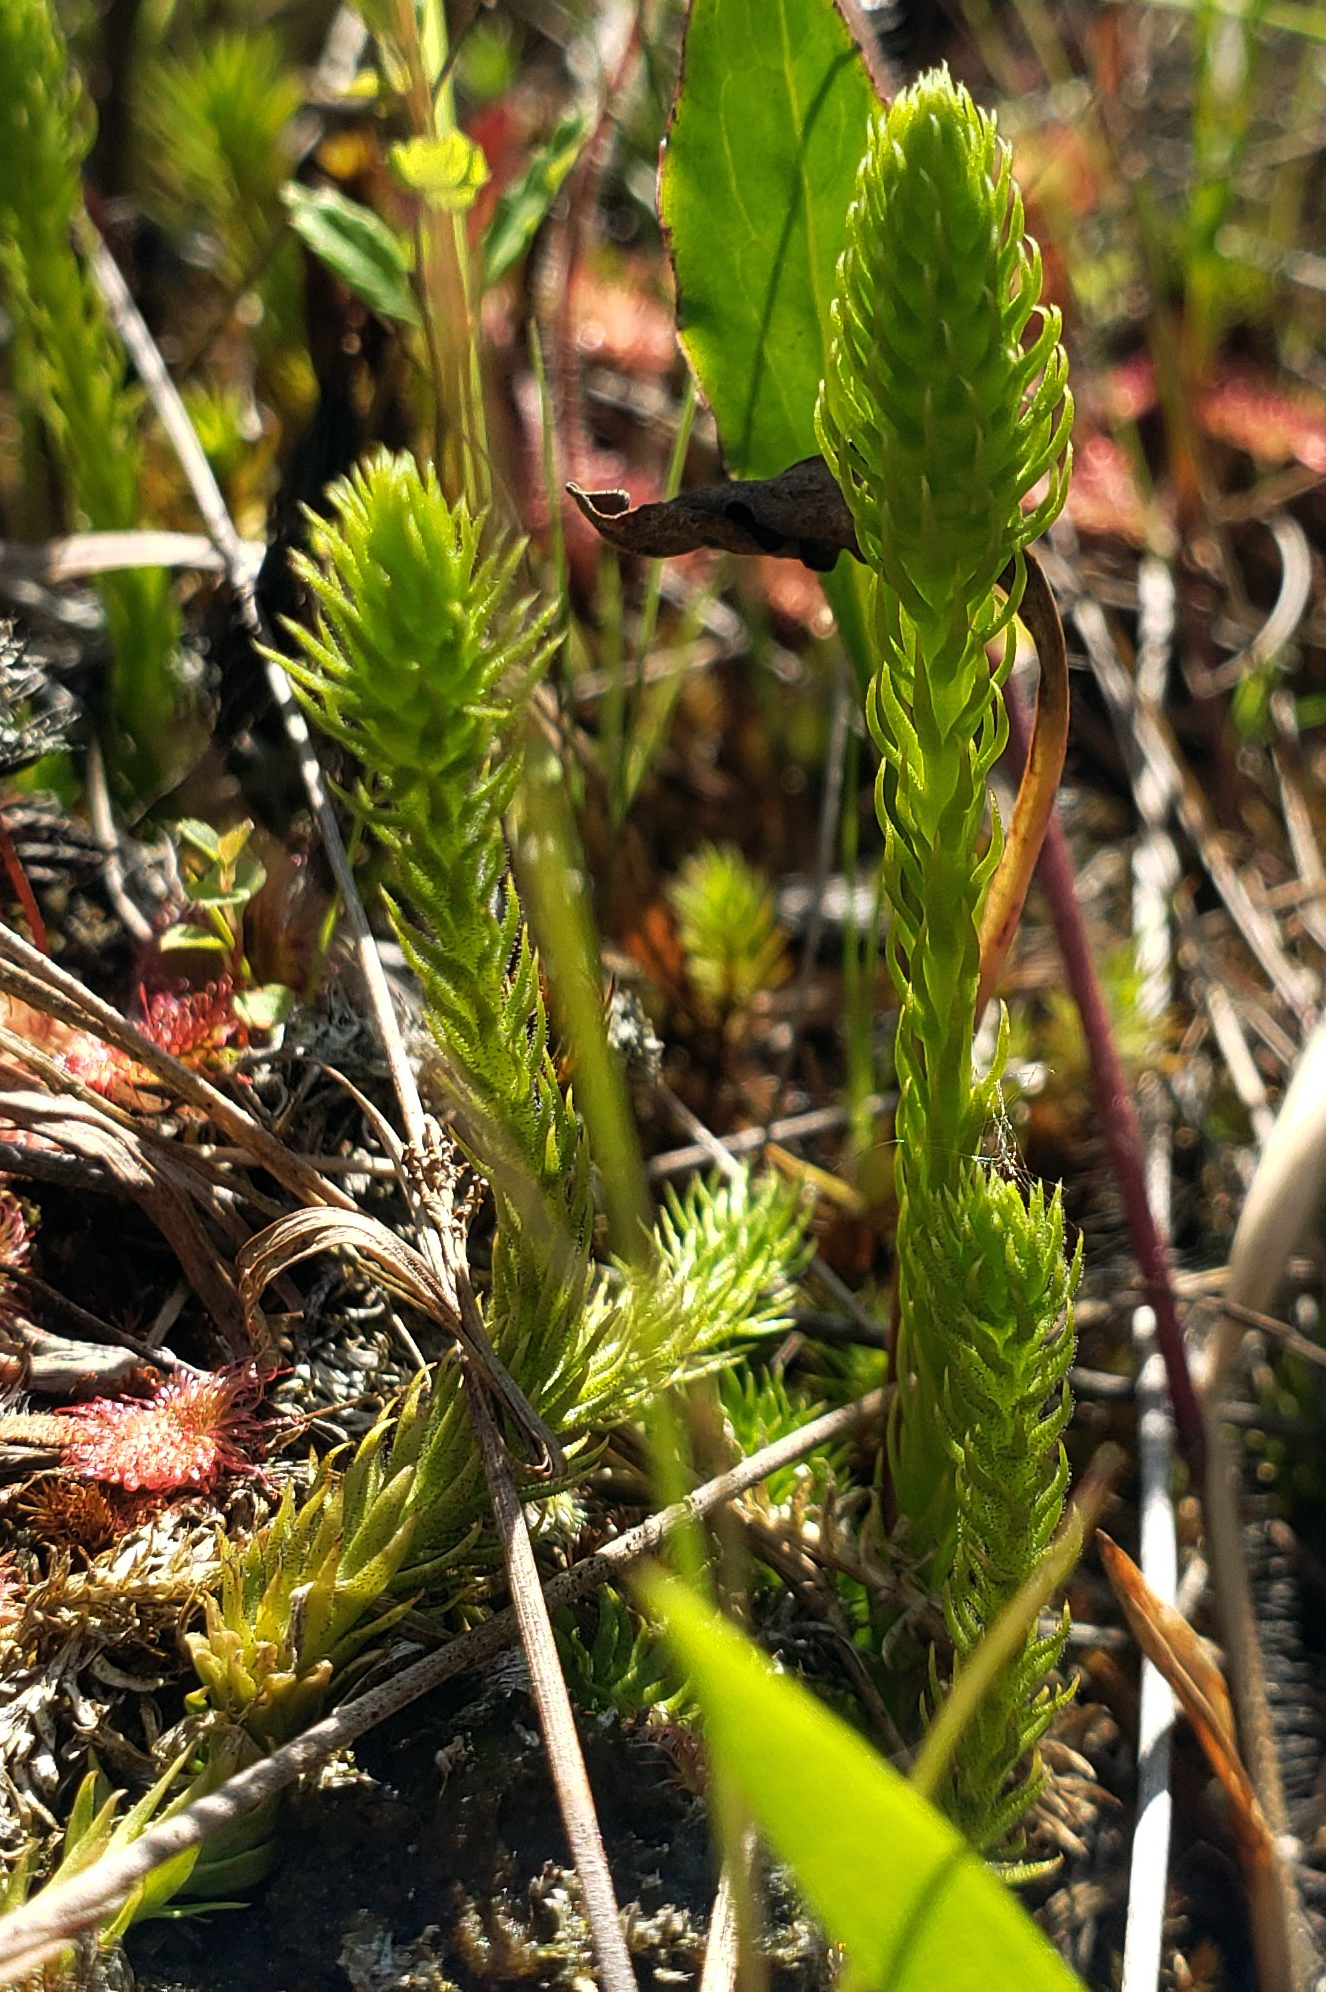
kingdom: Plantae
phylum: Tracheophyta
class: Lycopodiopsida
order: Lycopodiales
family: Lycopodiaceae
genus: Lycopodiella
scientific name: Lycopodiella inundata
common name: Marsh clubmoss
